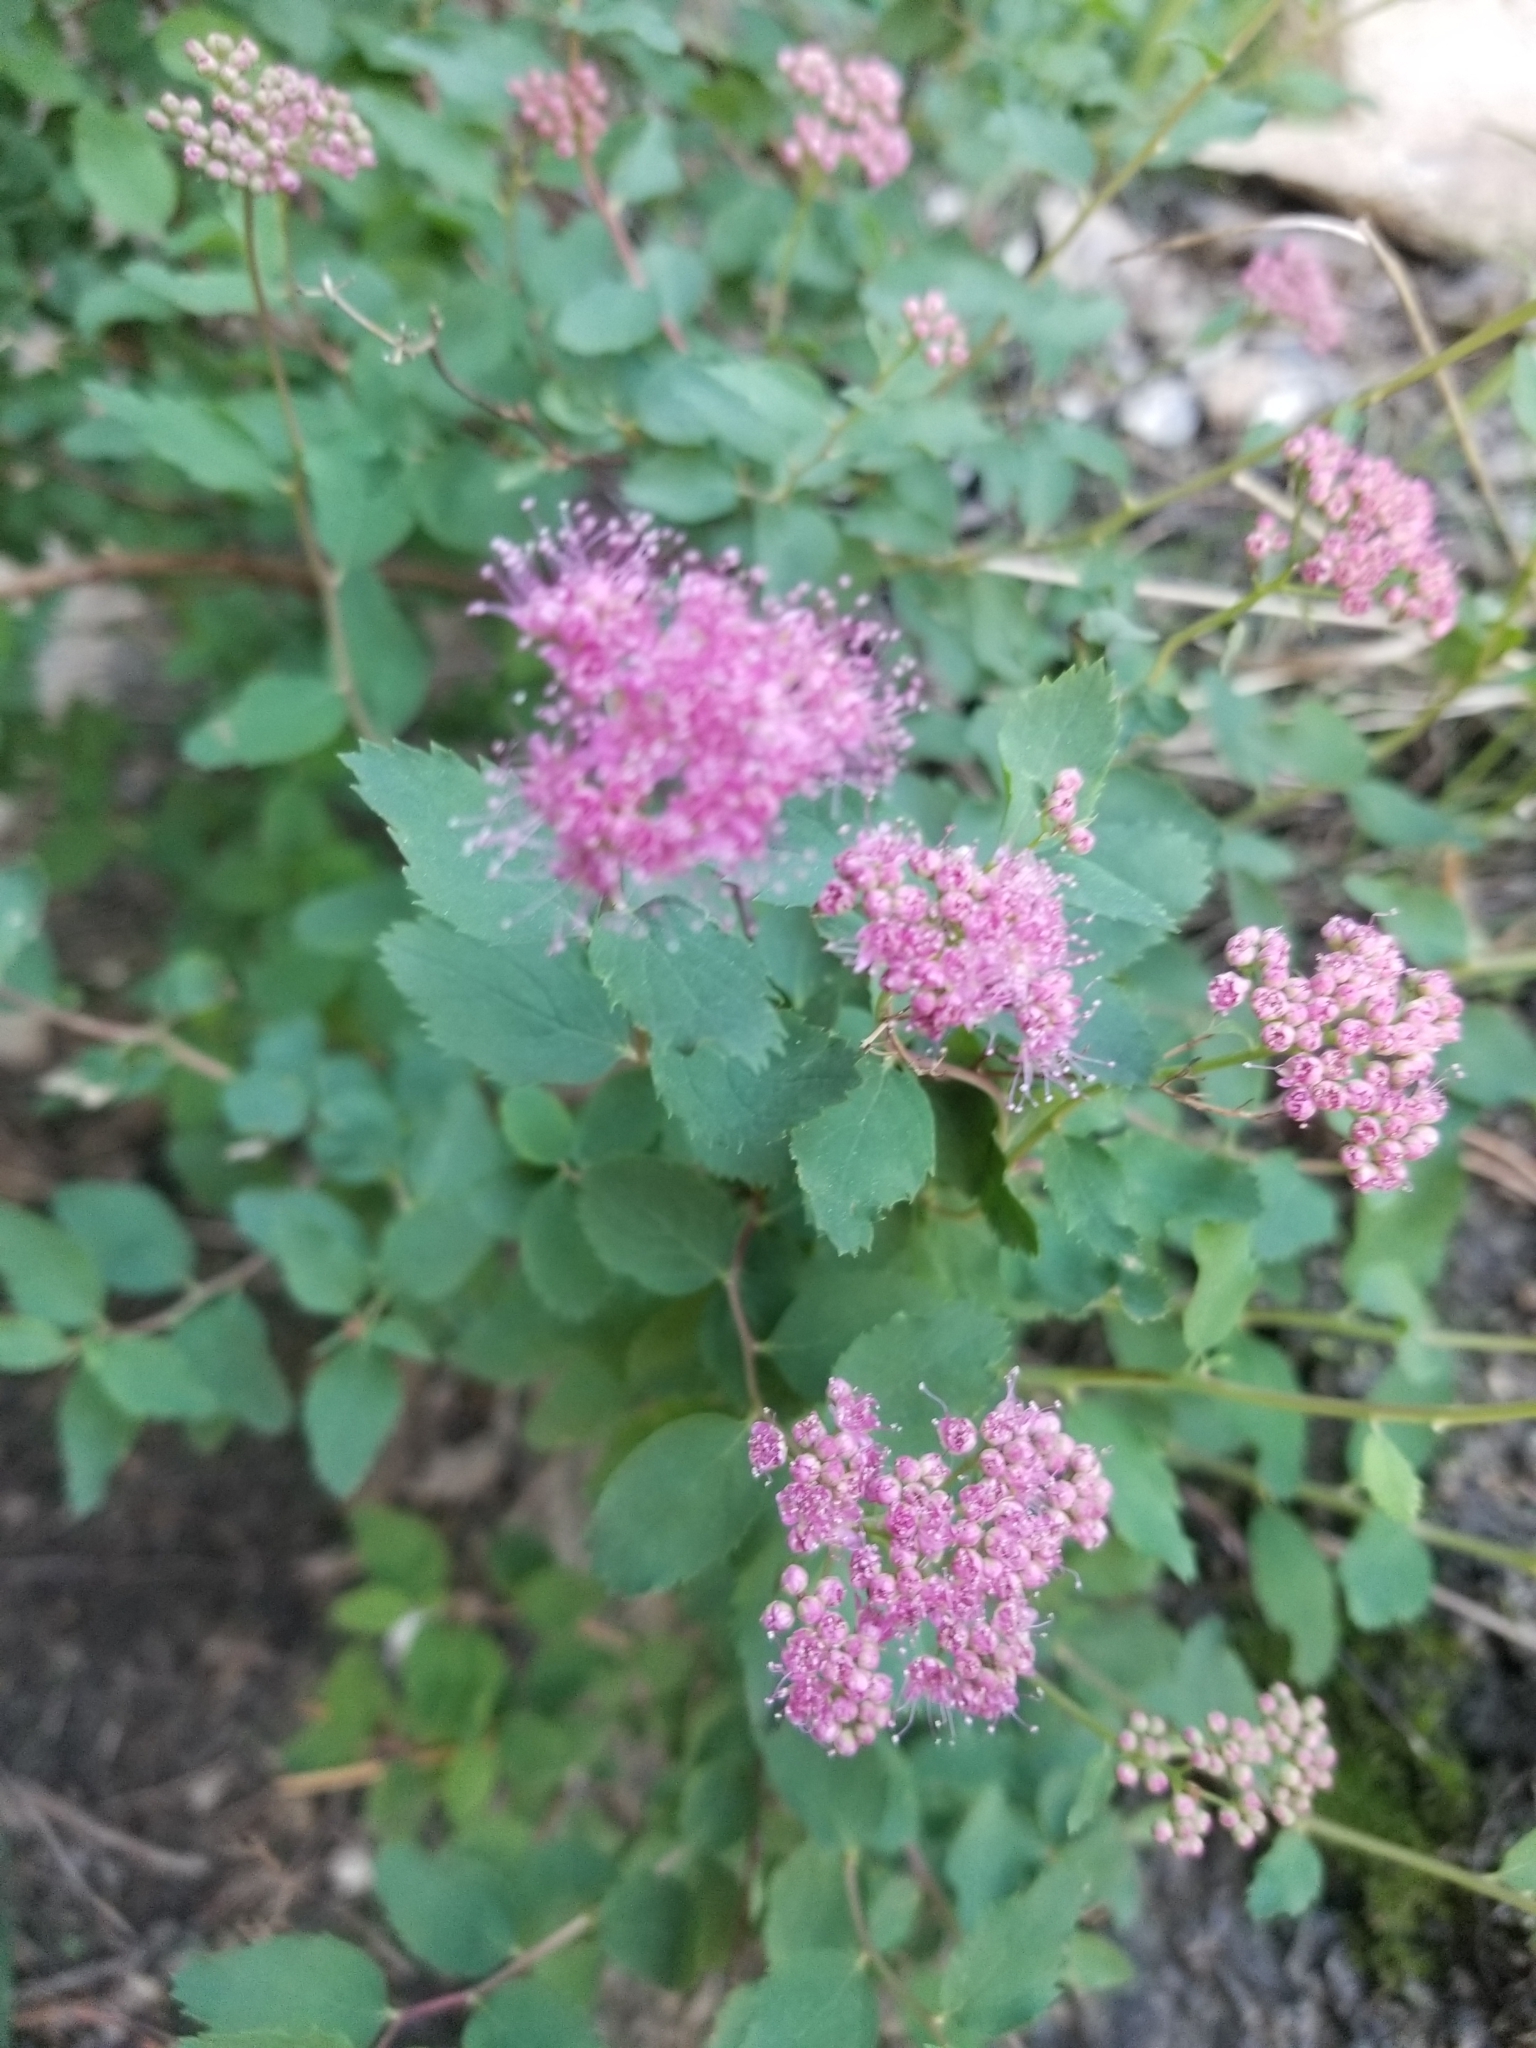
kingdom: Plantae
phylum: Tracheophyta
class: Magnoliopsida
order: Rosales
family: Rosaceae
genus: Spiraea
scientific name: Spiraea splendens
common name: Subalpine meadowsweet
